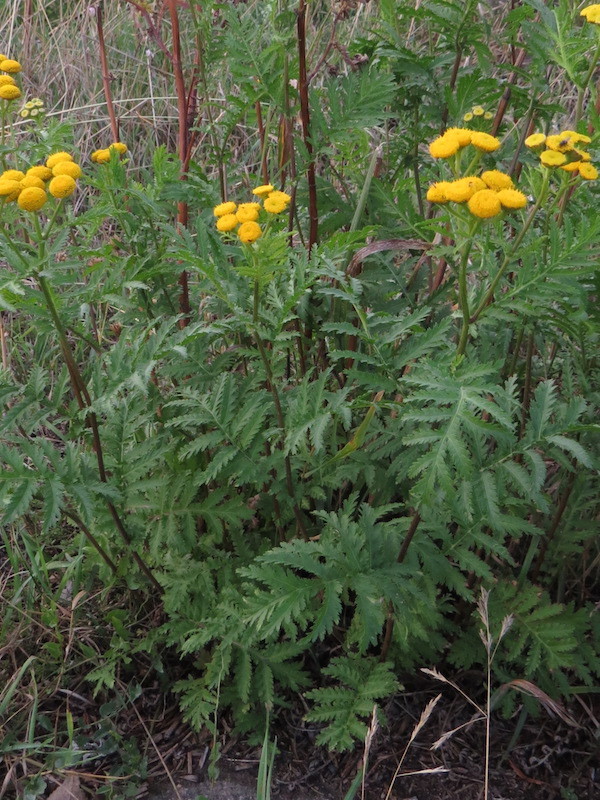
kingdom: Plantae
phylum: Tracheophyta
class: Magnoliopsida
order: Asterales
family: Asteraceae
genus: Tanacetum
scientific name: Tanacetum vulgare
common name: Common tansy
